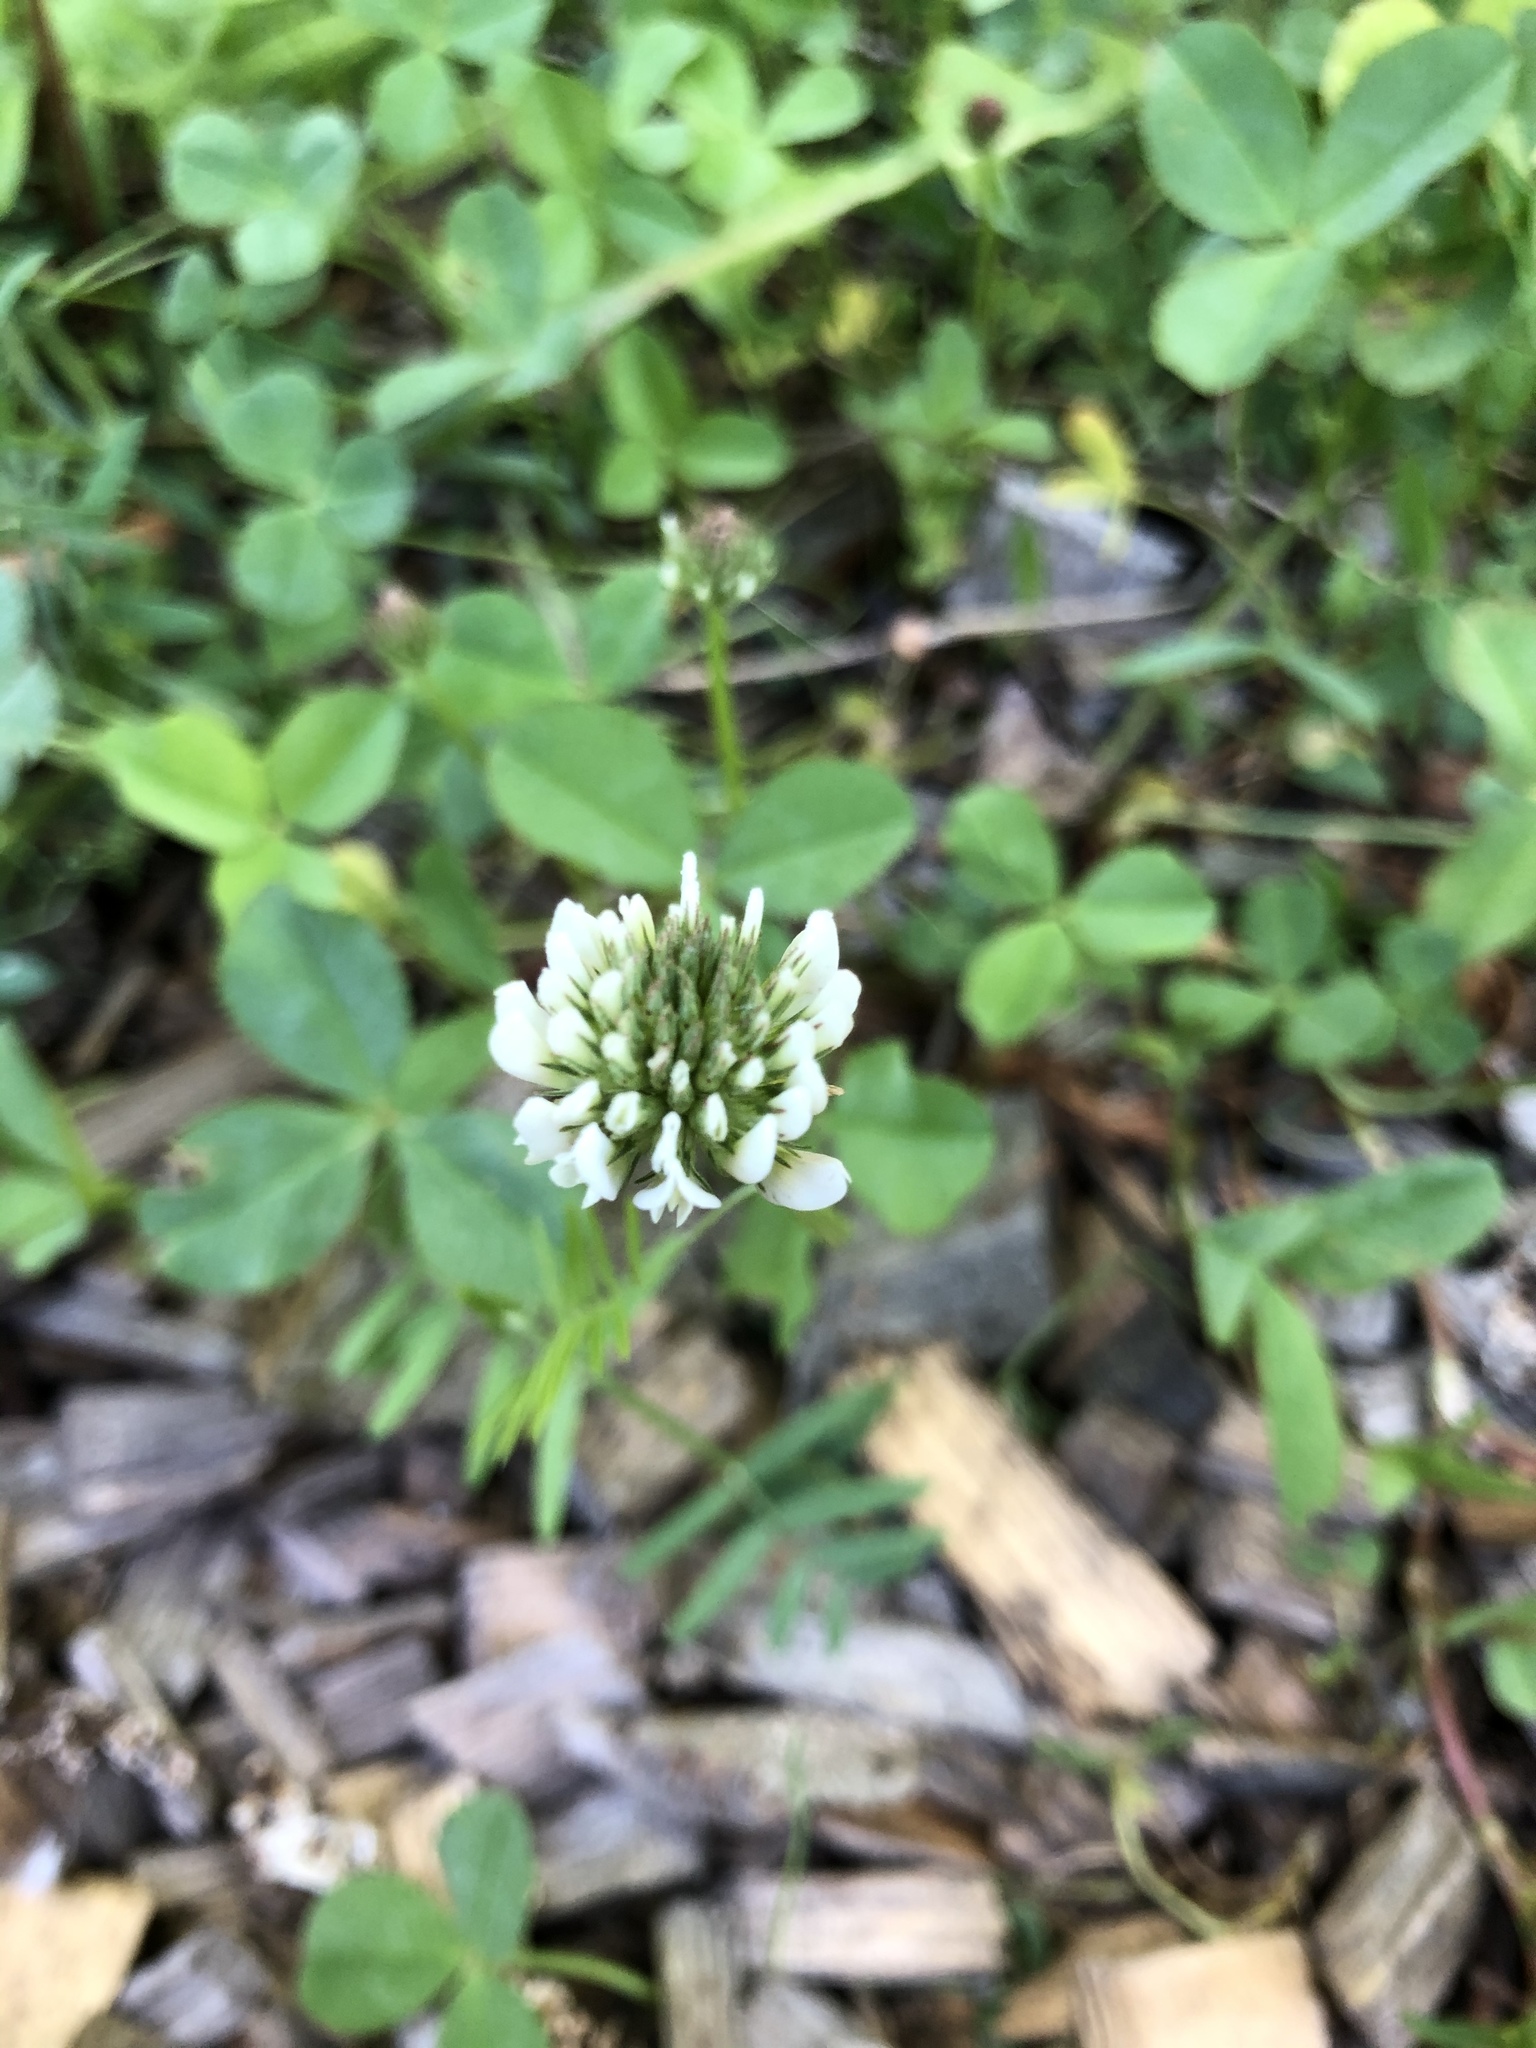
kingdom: Plantae
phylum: Tracheophyta
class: Magnoliopsida
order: Fabales
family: Fabaceae
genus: Trifolium
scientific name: Trifolium repens
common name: White clover
